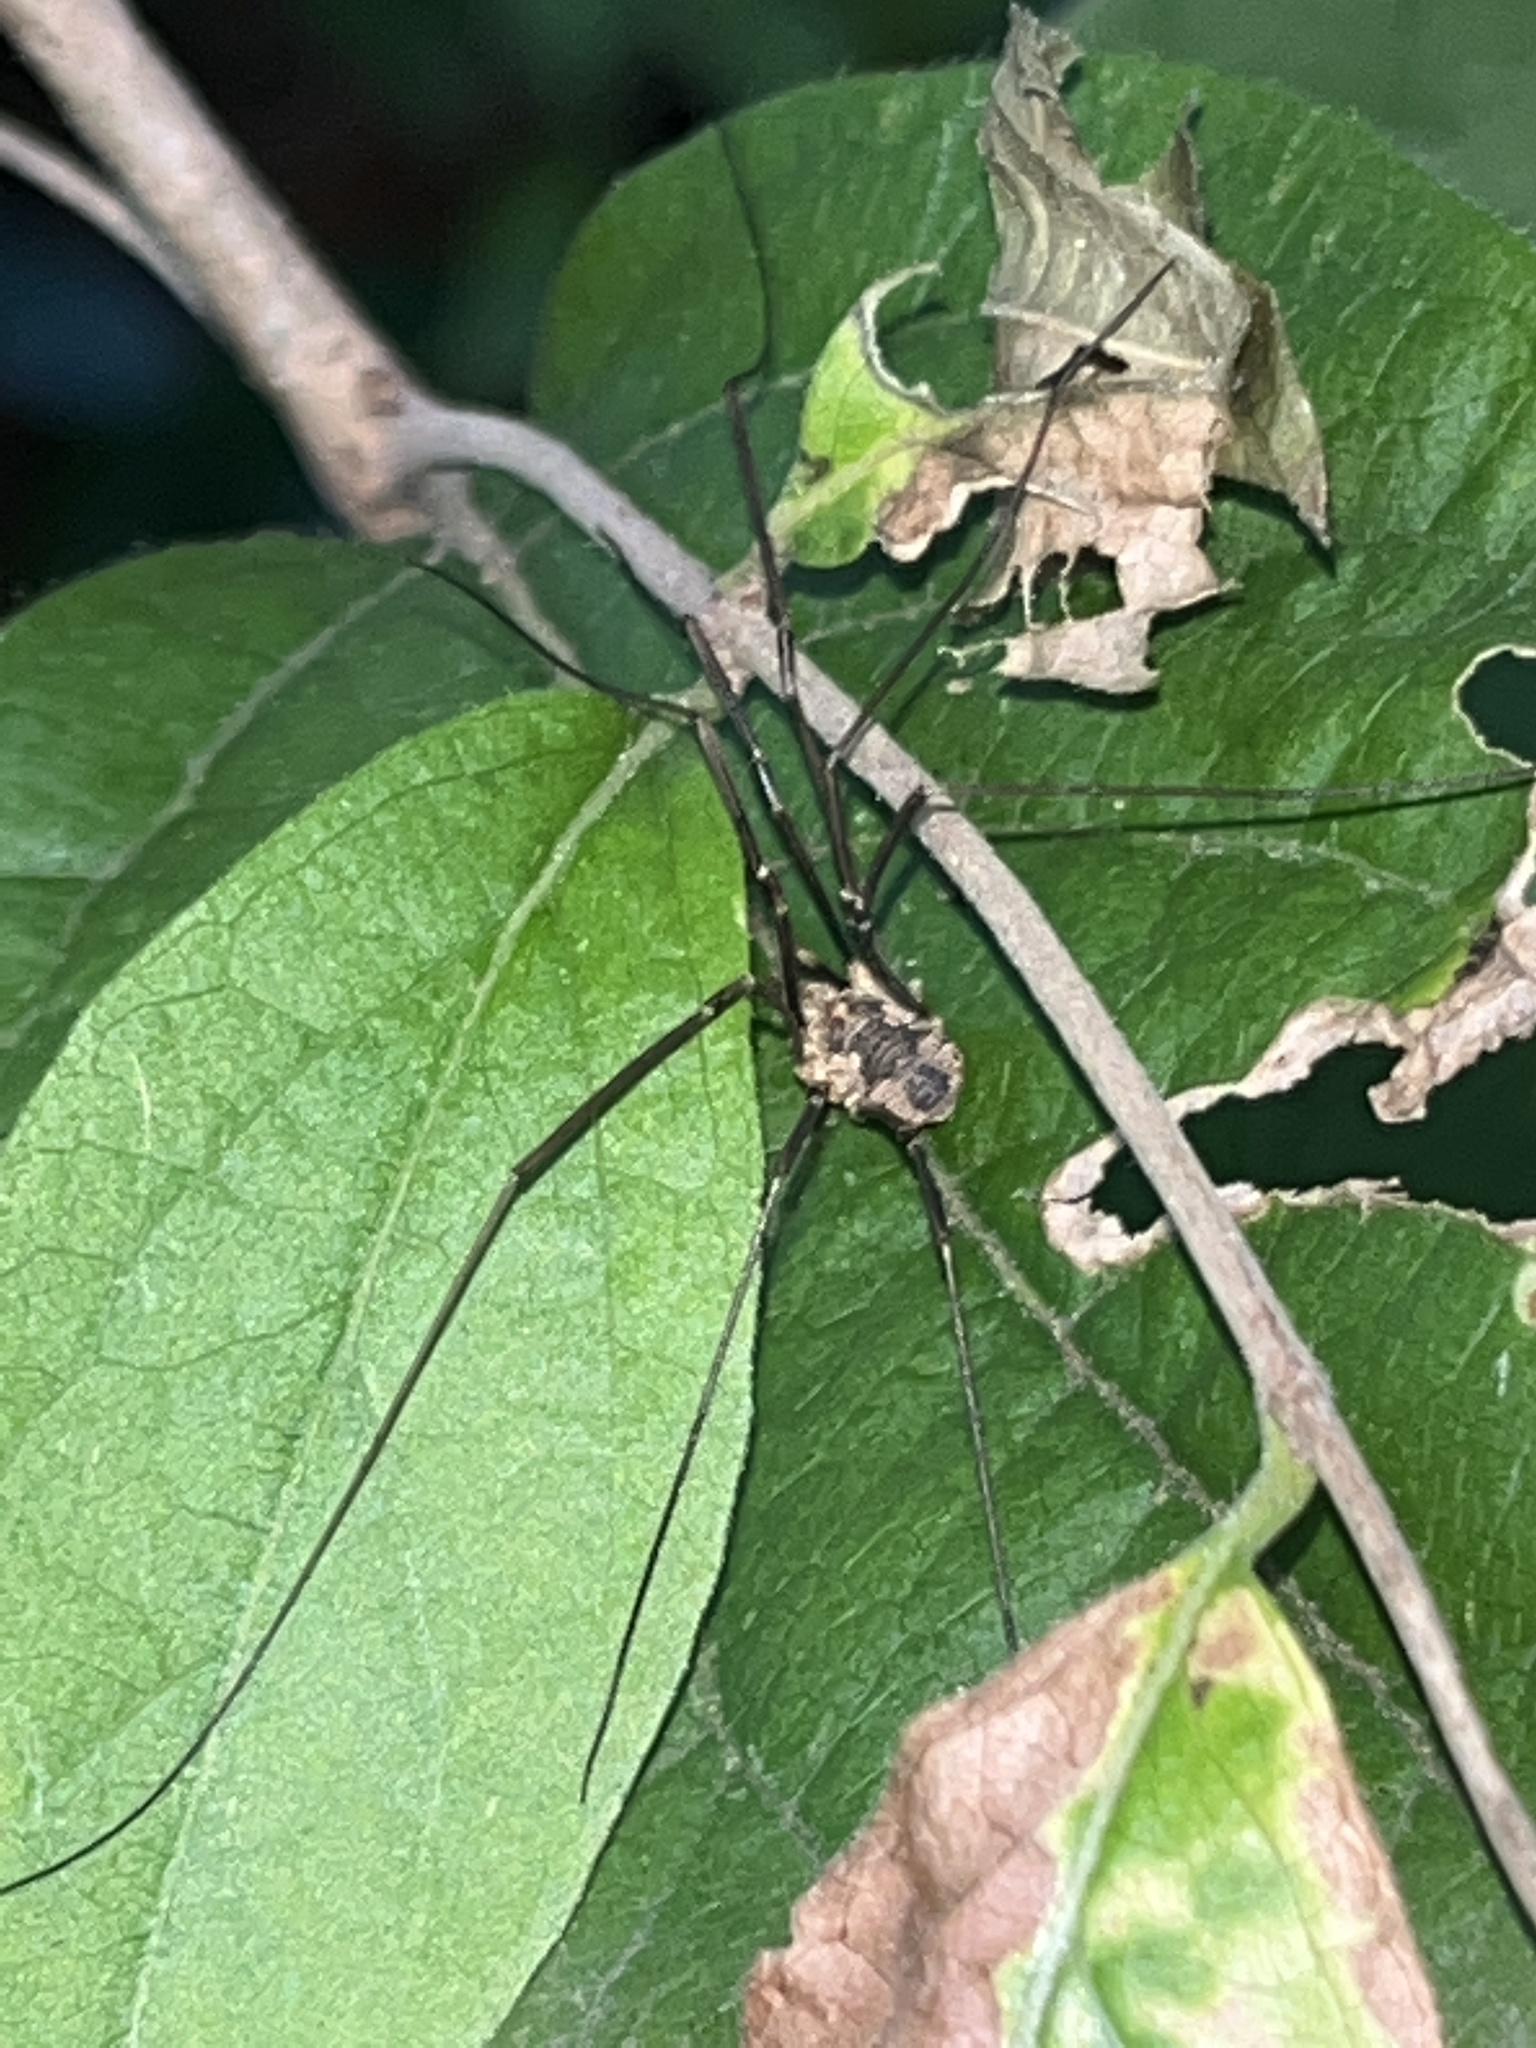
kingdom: Animalia
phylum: Arthropoda
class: Arachnida
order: Opiliones
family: Phalangiidae
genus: Phalangium
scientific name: Phalangium opilio
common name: Daddy longleg
